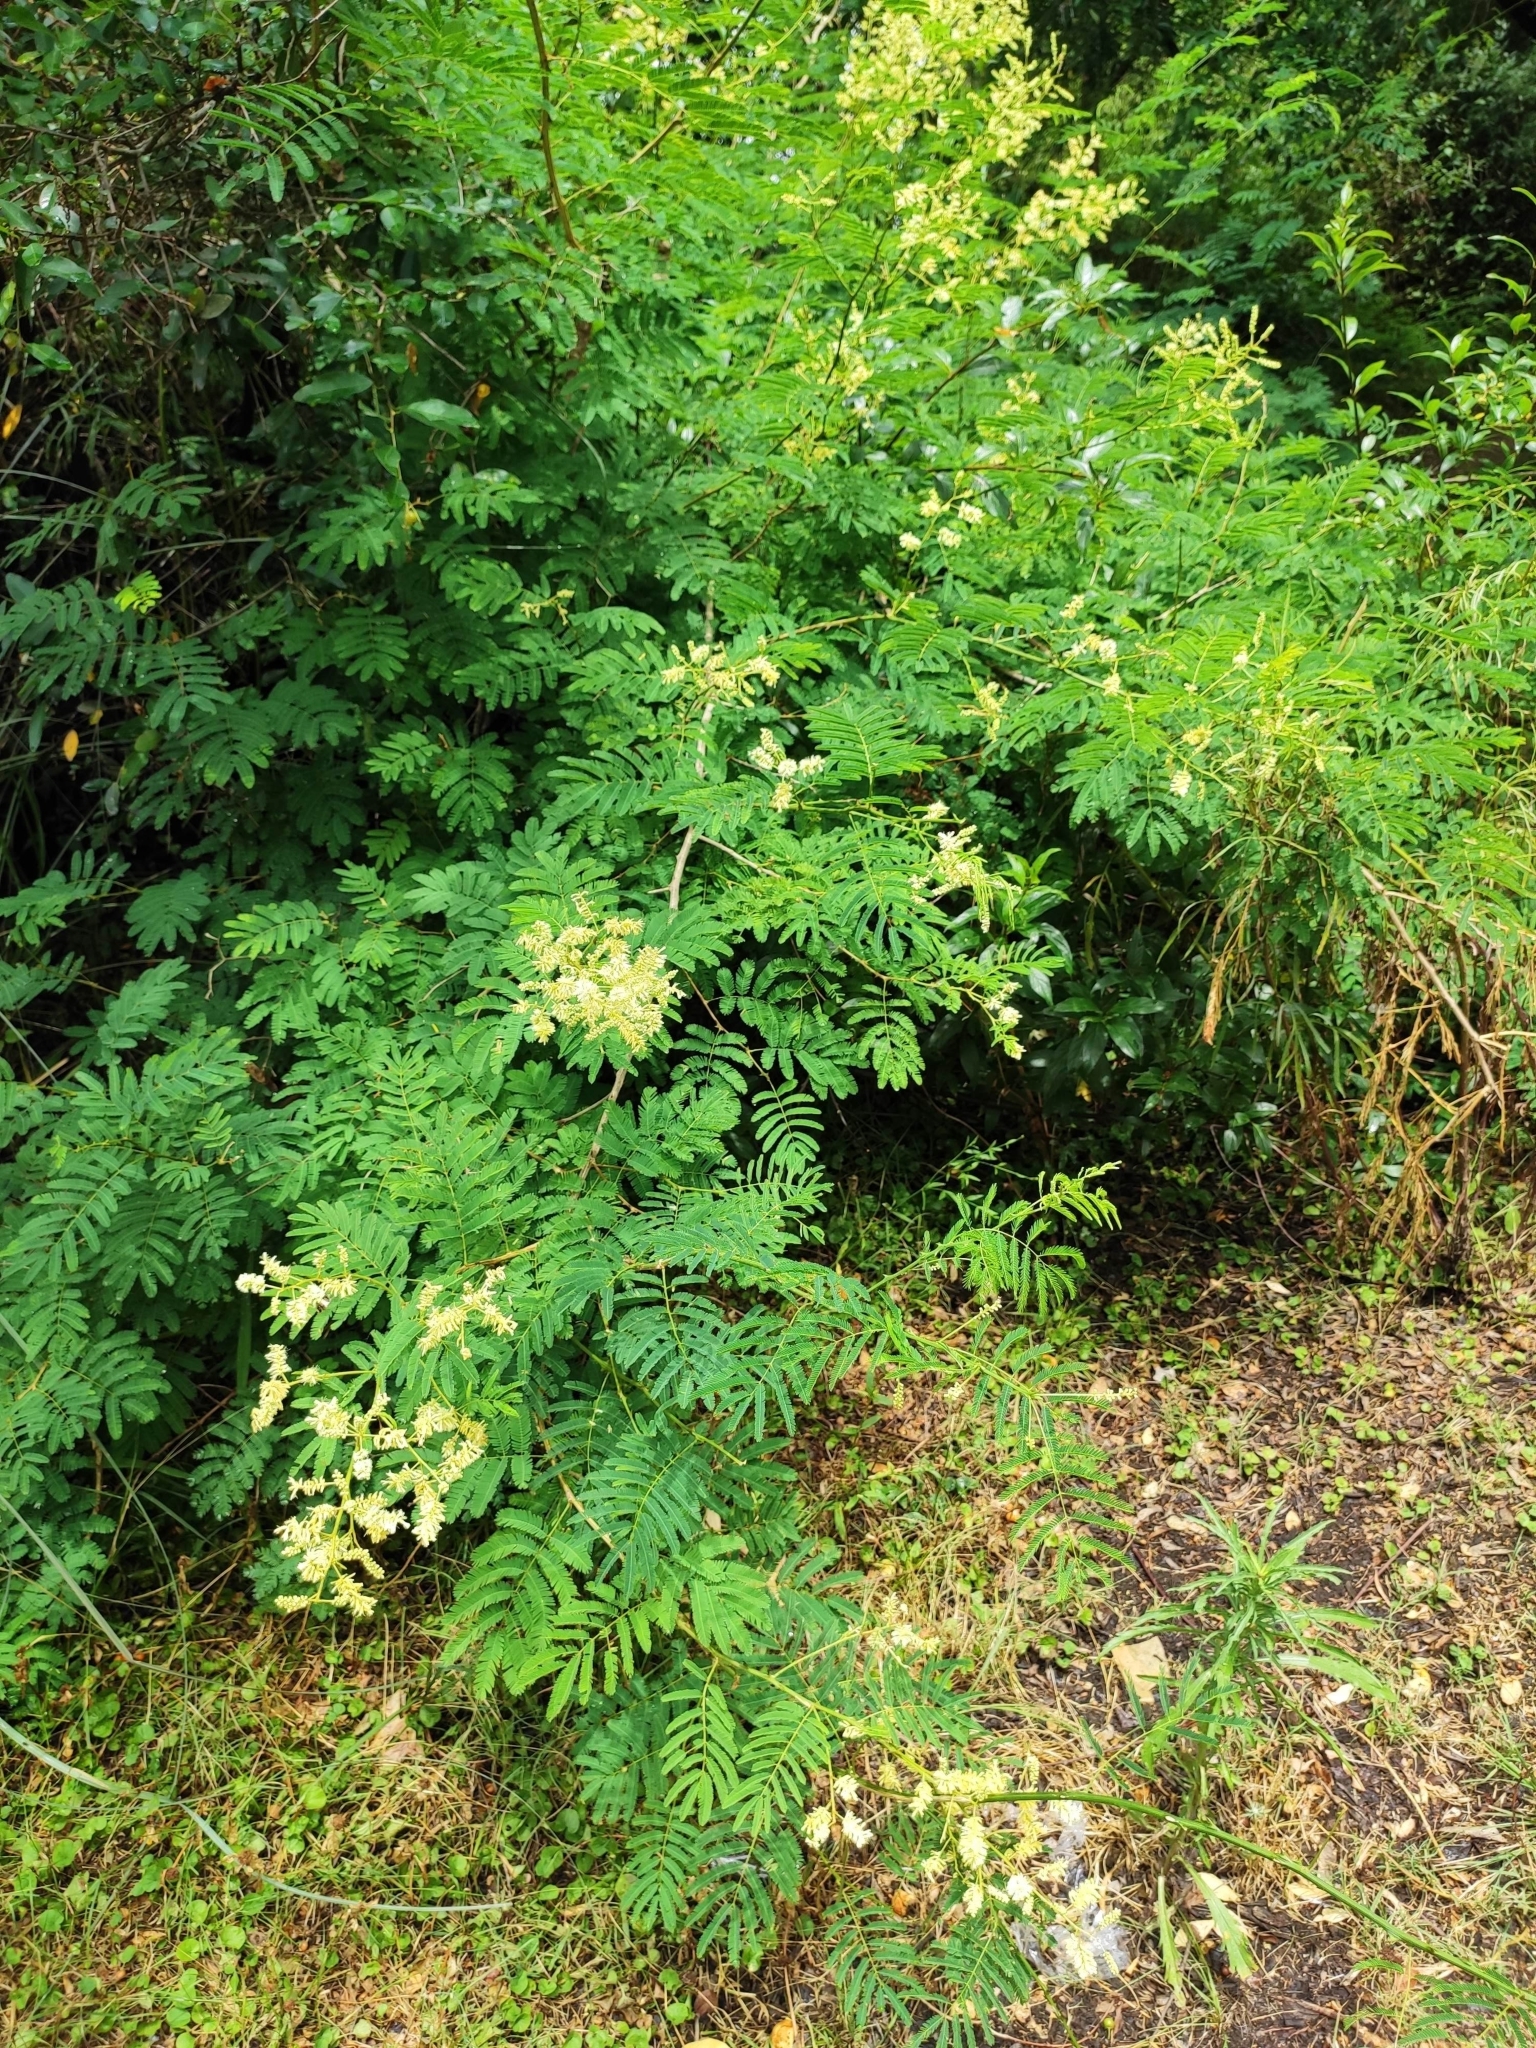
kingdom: Plantae
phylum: Tracheophyta
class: Magnoliopsida
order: Fabales
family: Fabaceae
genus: Senegalia
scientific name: Senegalia bonariensis
